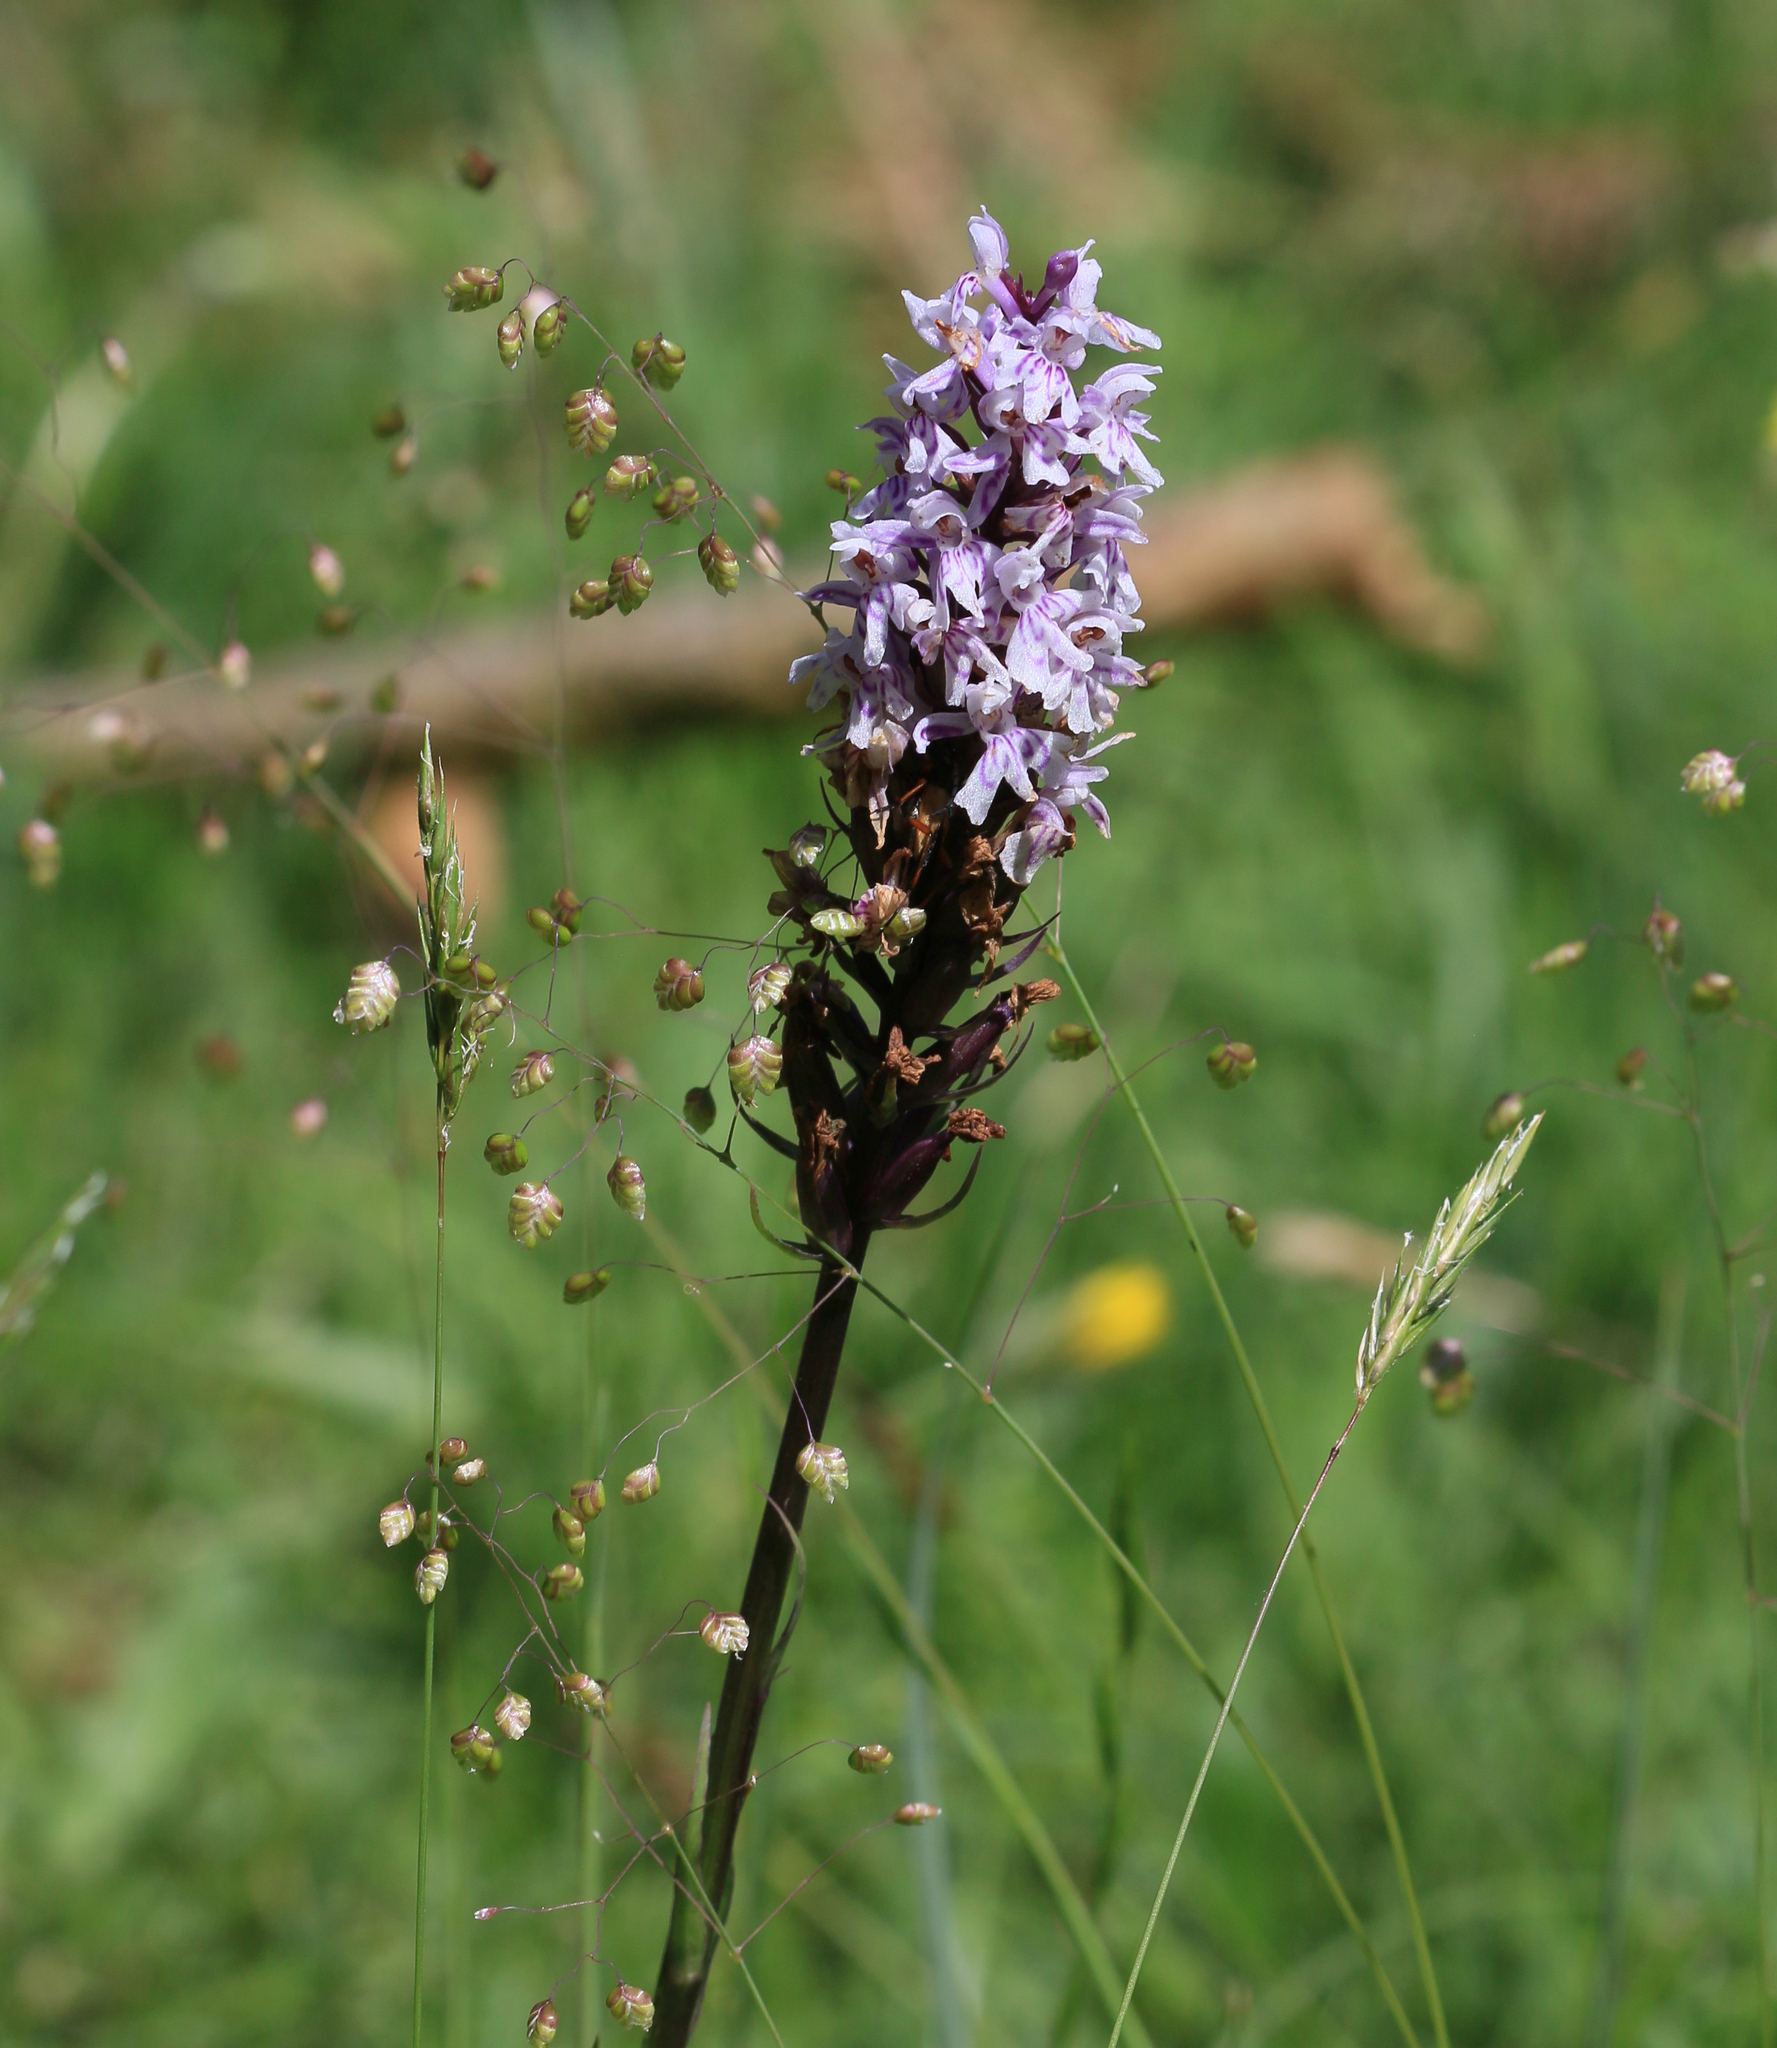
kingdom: Plantae
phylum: Tracheophyta
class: Liliopsida
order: Asparagales
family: Orchidaceae
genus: Dactylorhiza
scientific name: Dactylorhiza maculata
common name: Heath spotted-orchid
